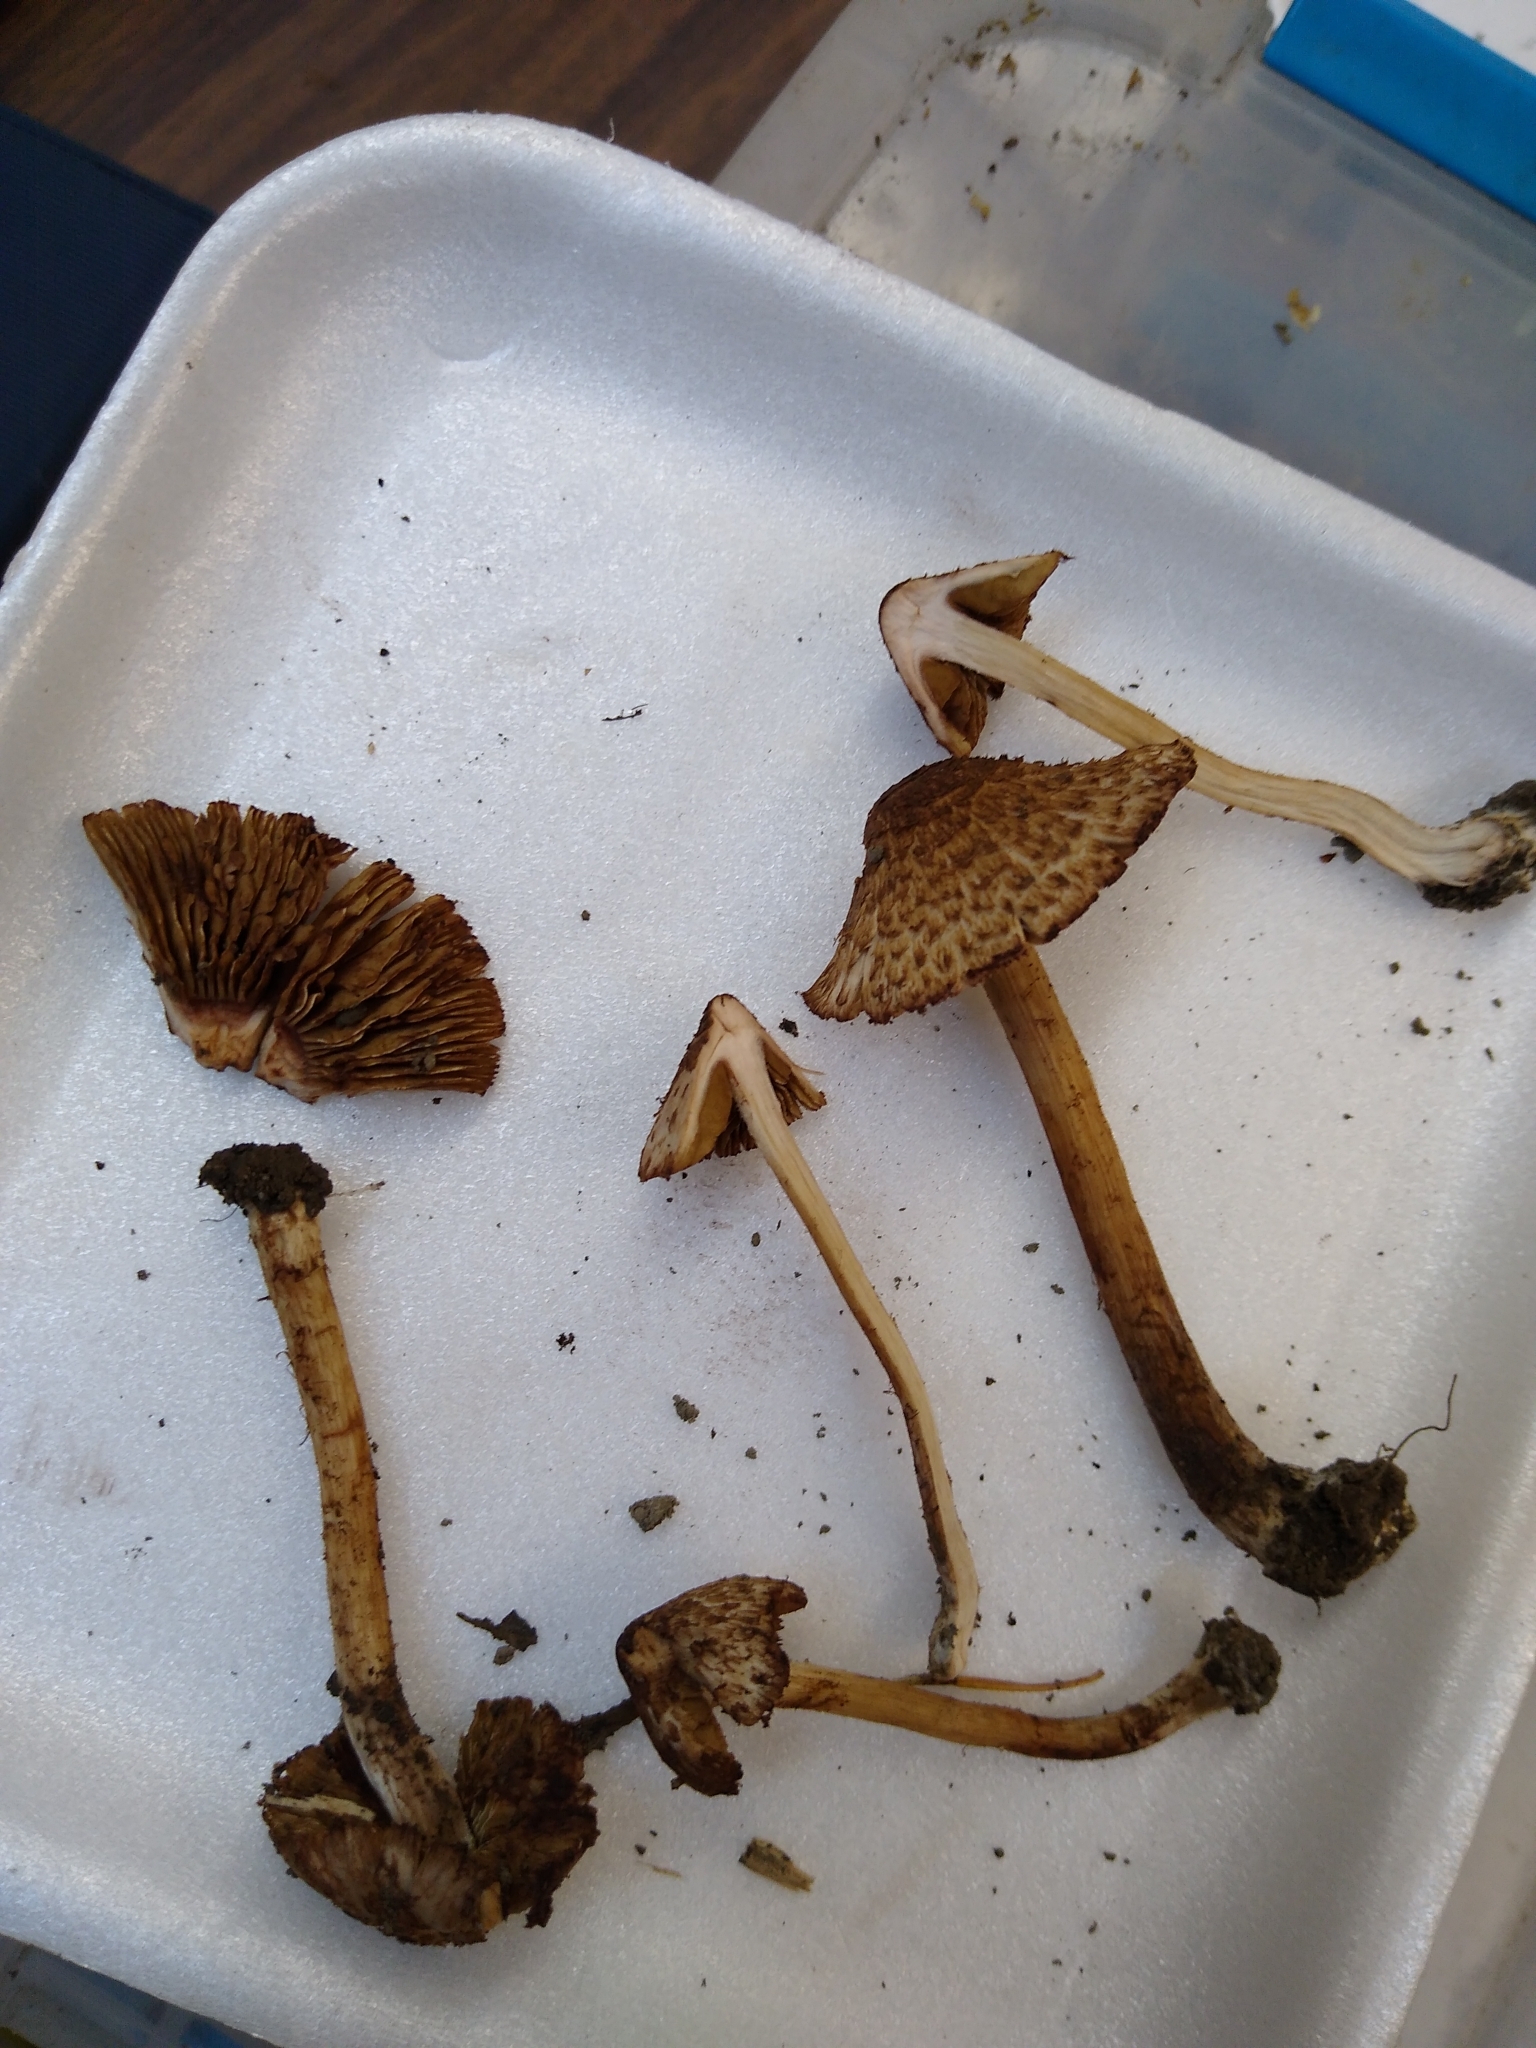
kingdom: Fungi
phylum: Basidiomycota
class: Agaricomycetes
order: Agaricales
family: Inocybaceae
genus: Inosperma
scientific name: Inosperma subrubescens
